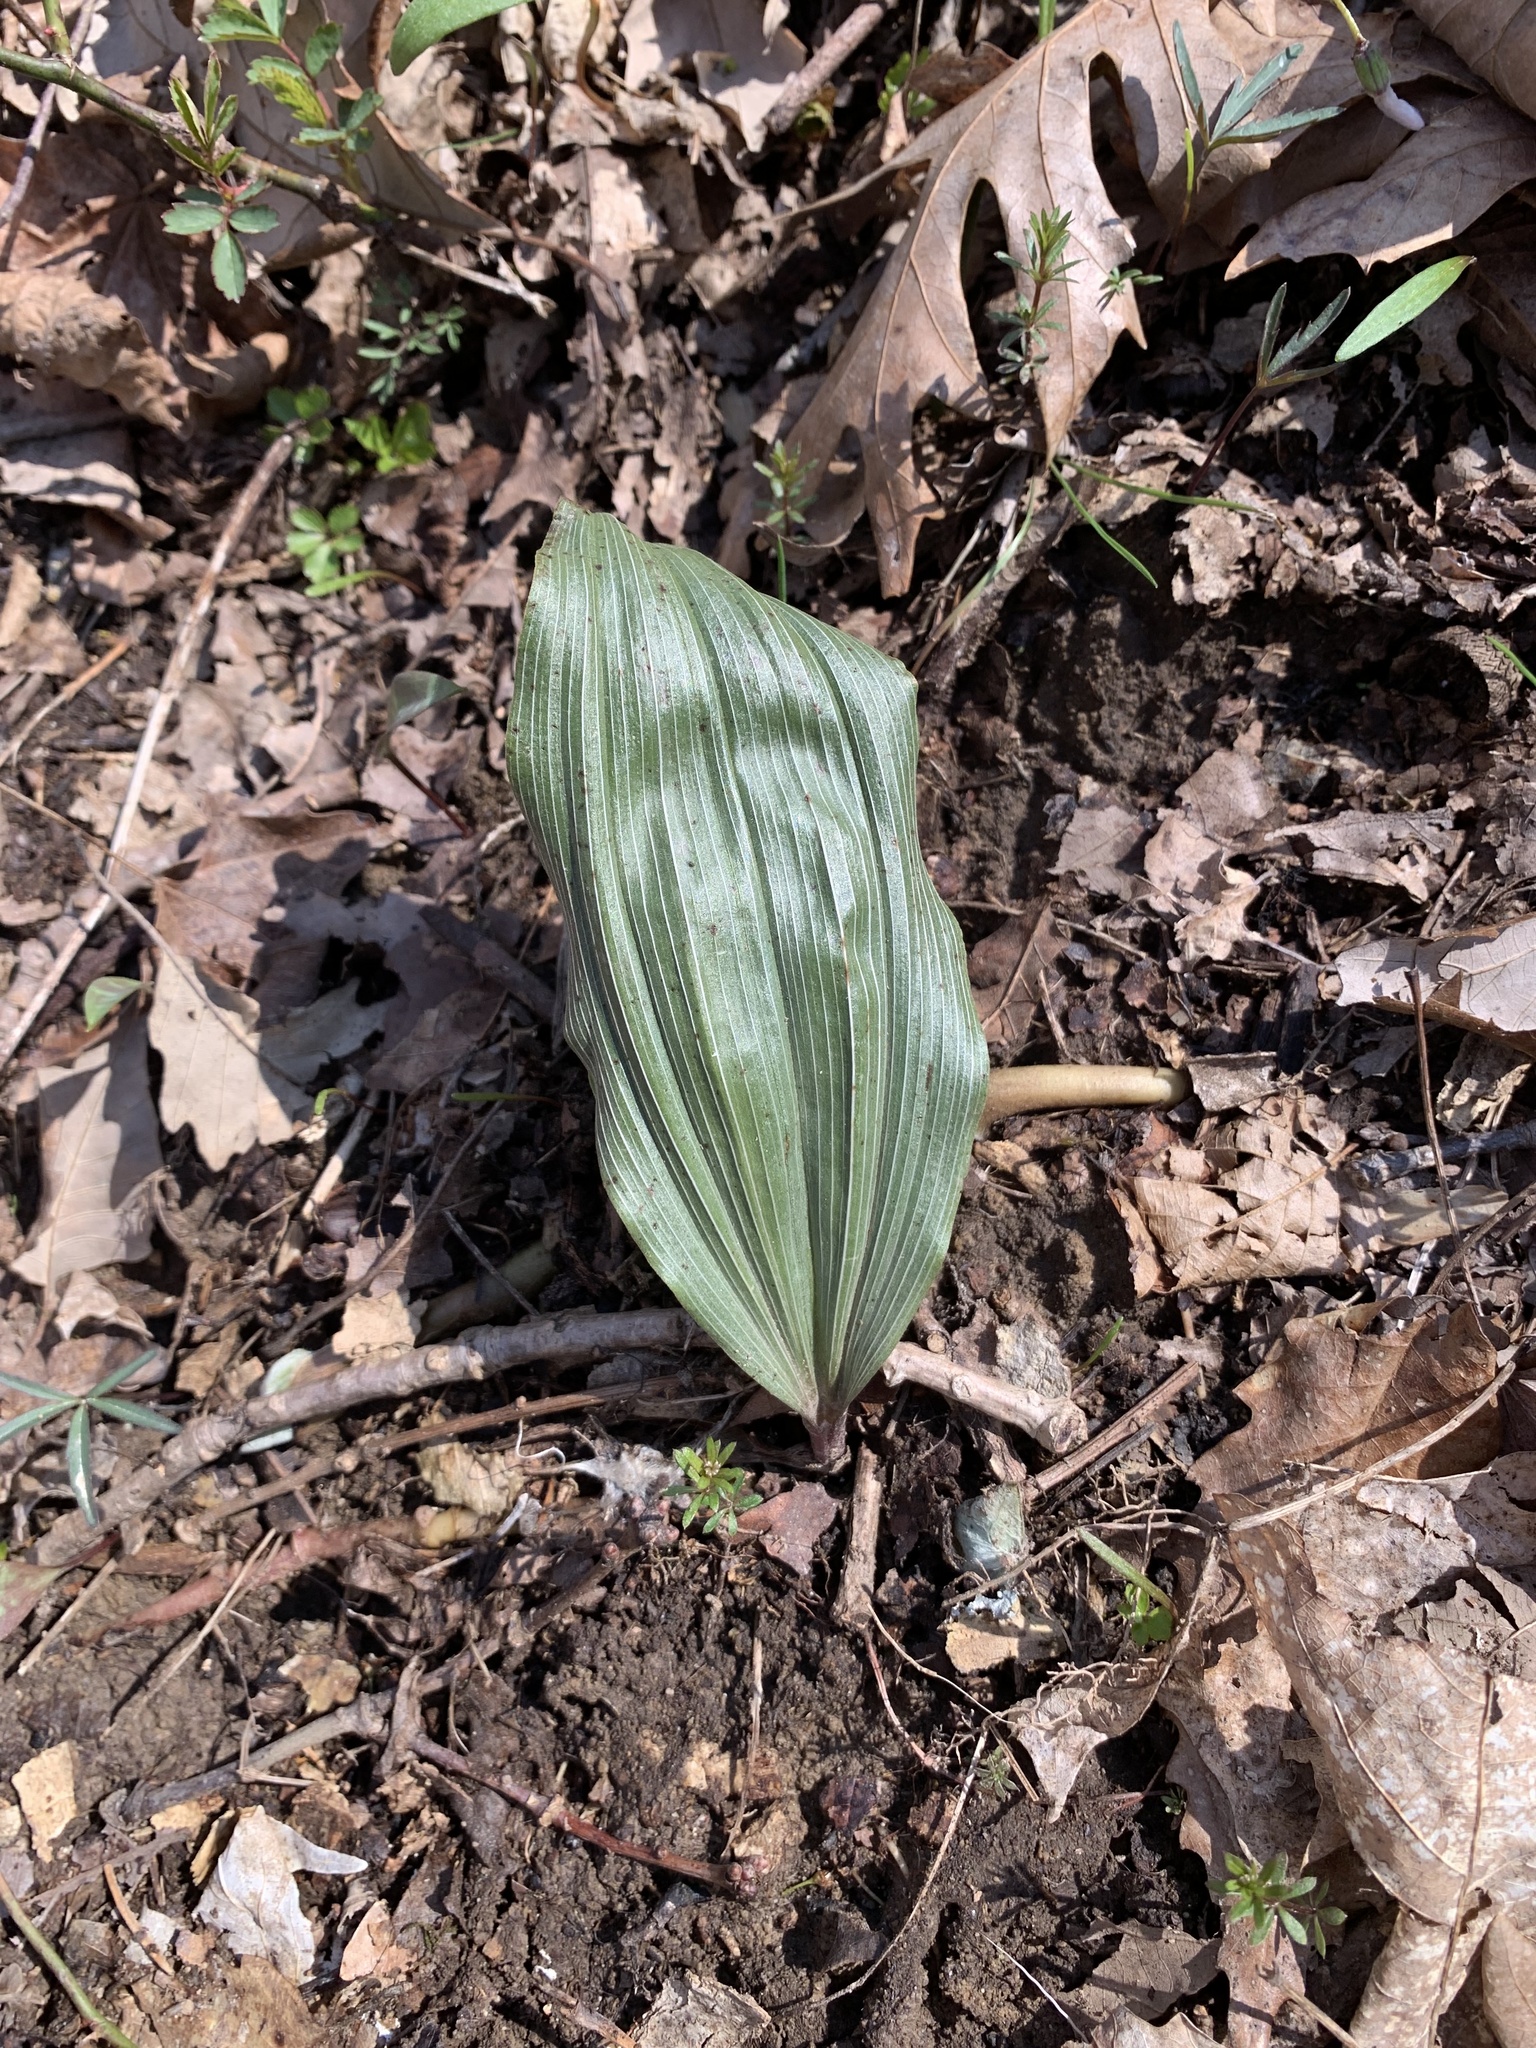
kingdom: Plantae
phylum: Tracheophyta
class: Liliopsida
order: Asparagales
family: Orchidaceae
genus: Aplectrum
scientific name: Aplectrum hyemale
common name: Adam-and-eve
